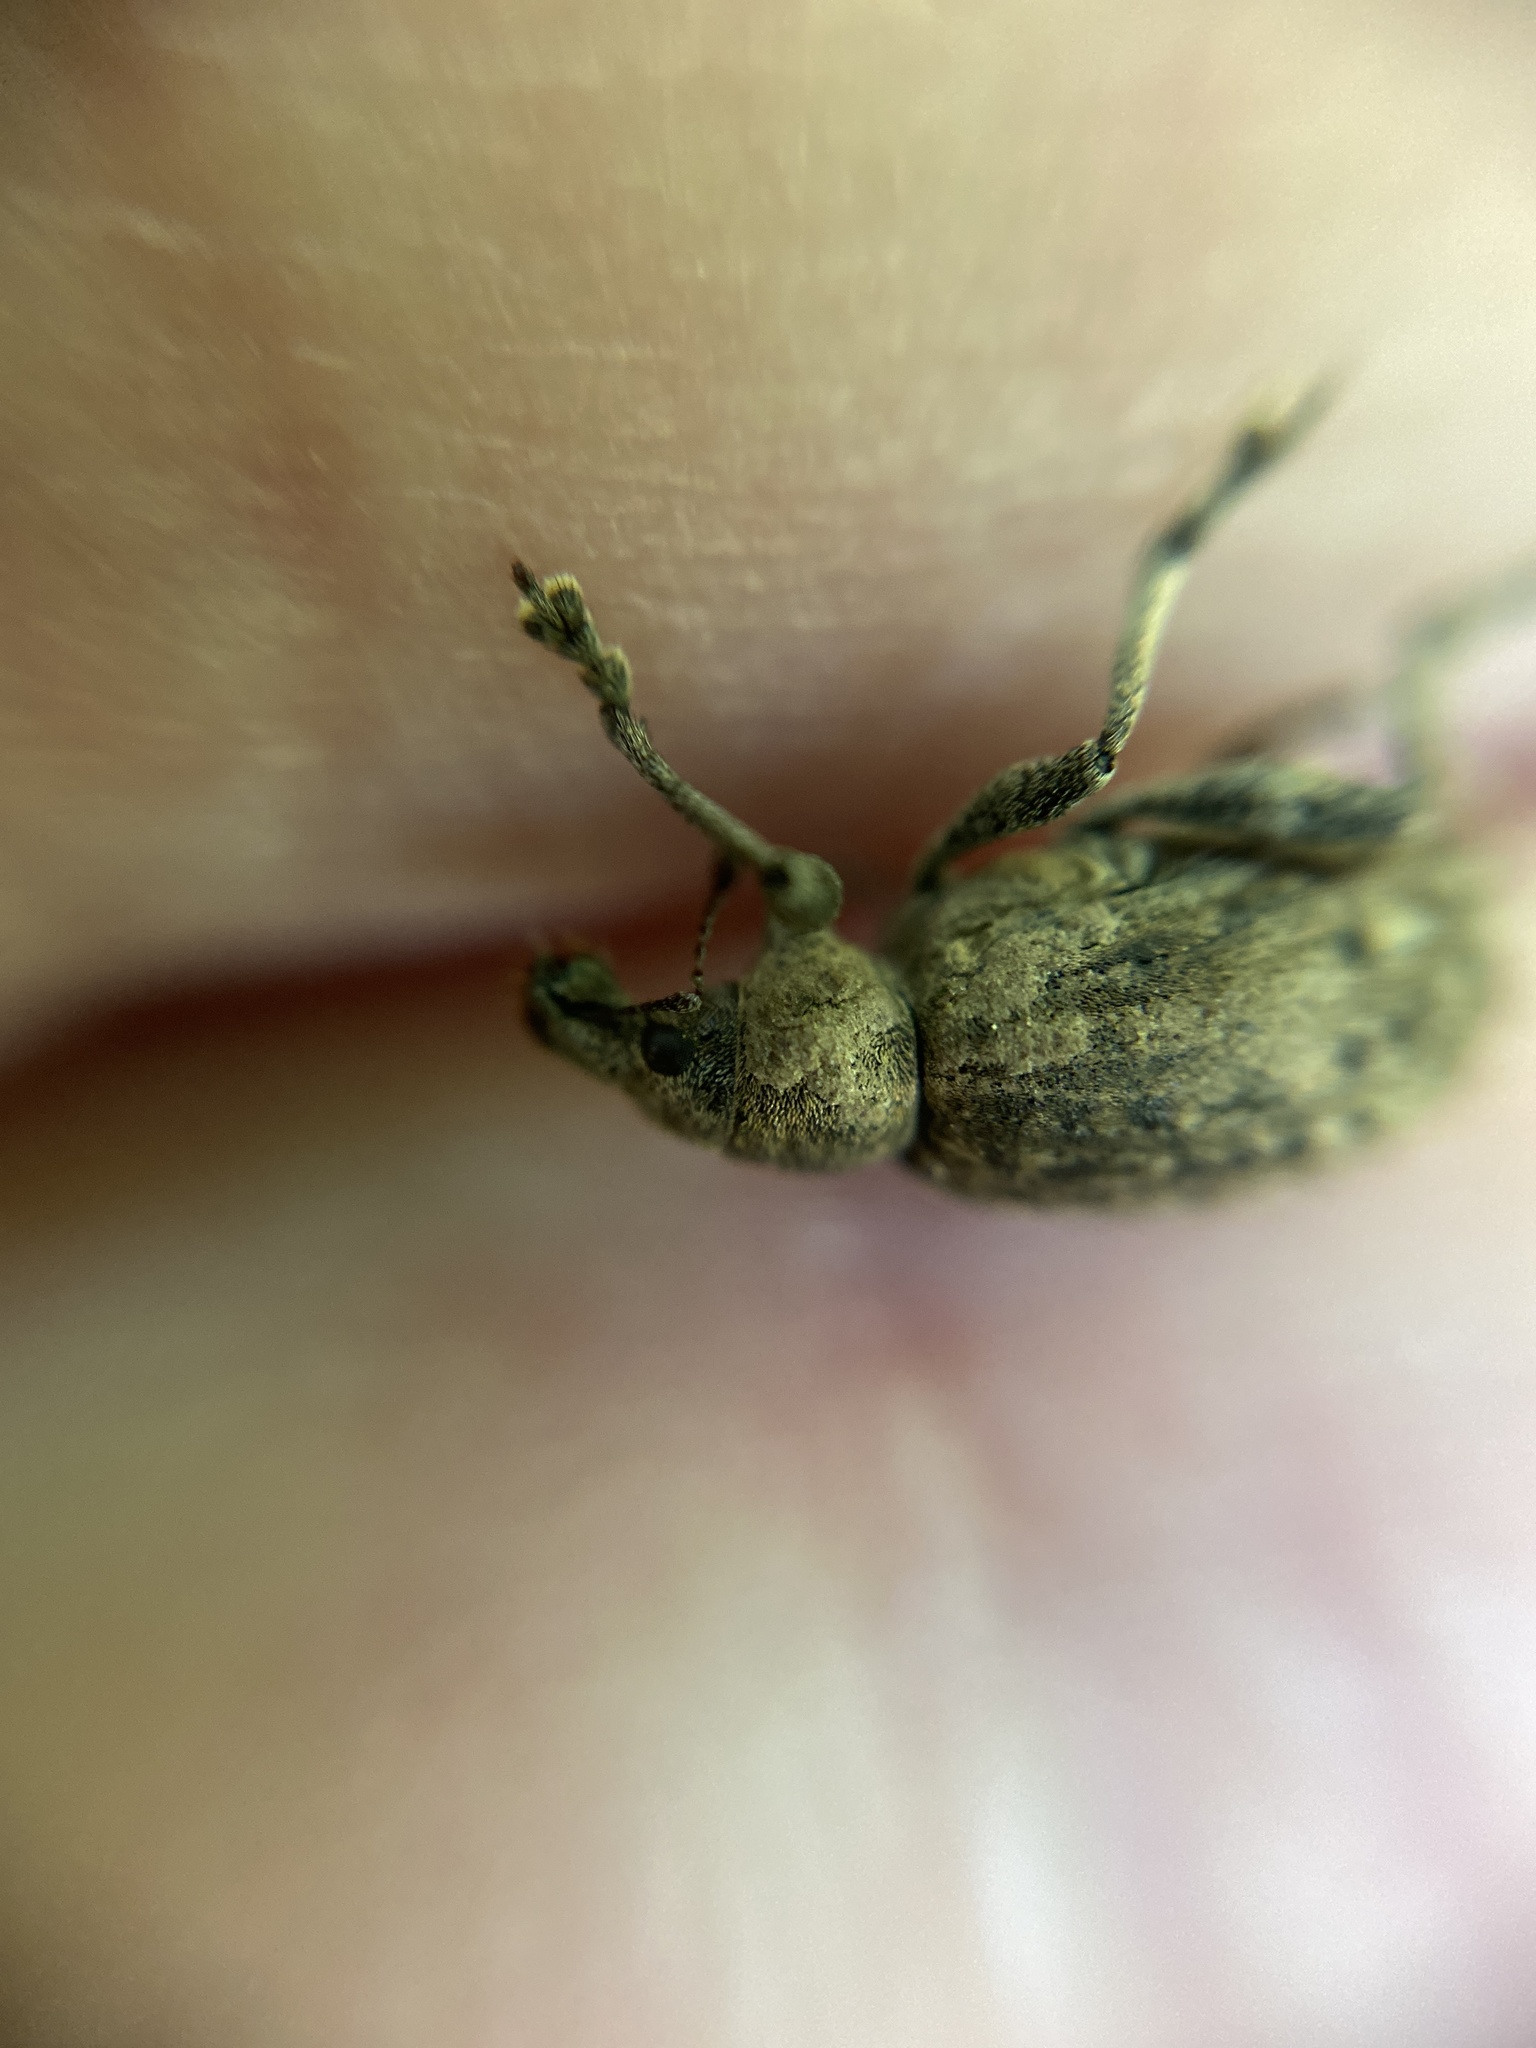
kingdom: Animalia
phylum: Arthropoda
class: Insecta
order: Coleoptera
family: Curculionidae
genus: Liophloeus
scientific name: Liophloeus tessulatus
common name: Weevil
